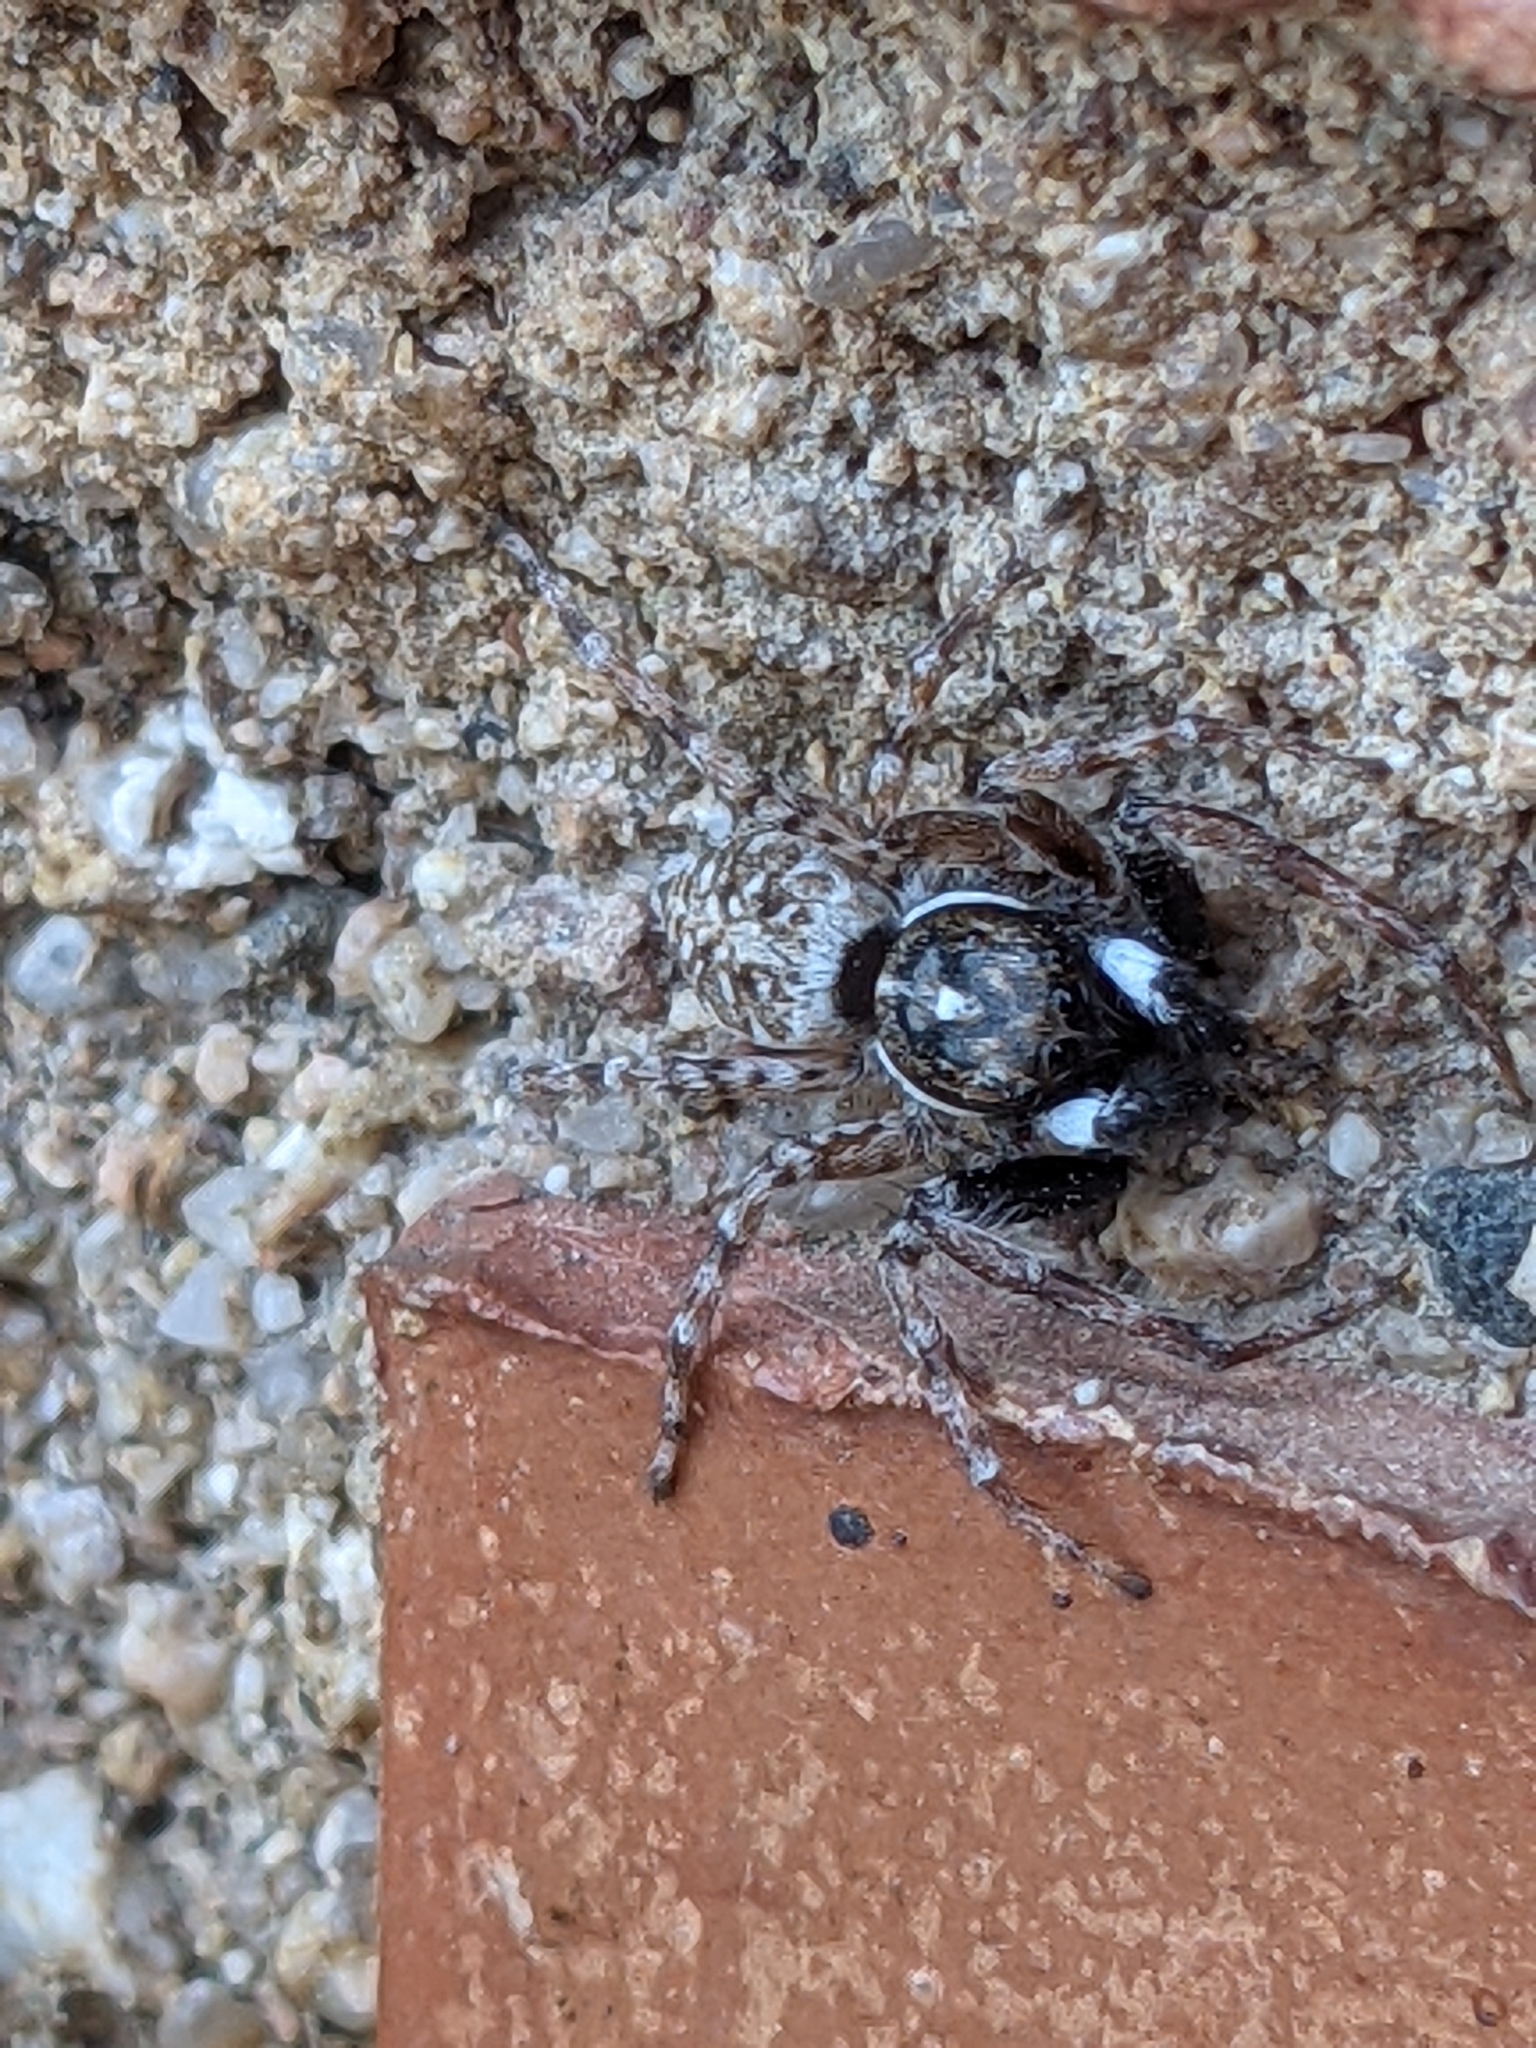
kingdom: Animalia
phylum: Arthropoda
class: Arachnida
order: Araneae
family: Salticidae
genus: Menemerus
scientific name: Menemerus semilimbatus
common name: Jumping spider
